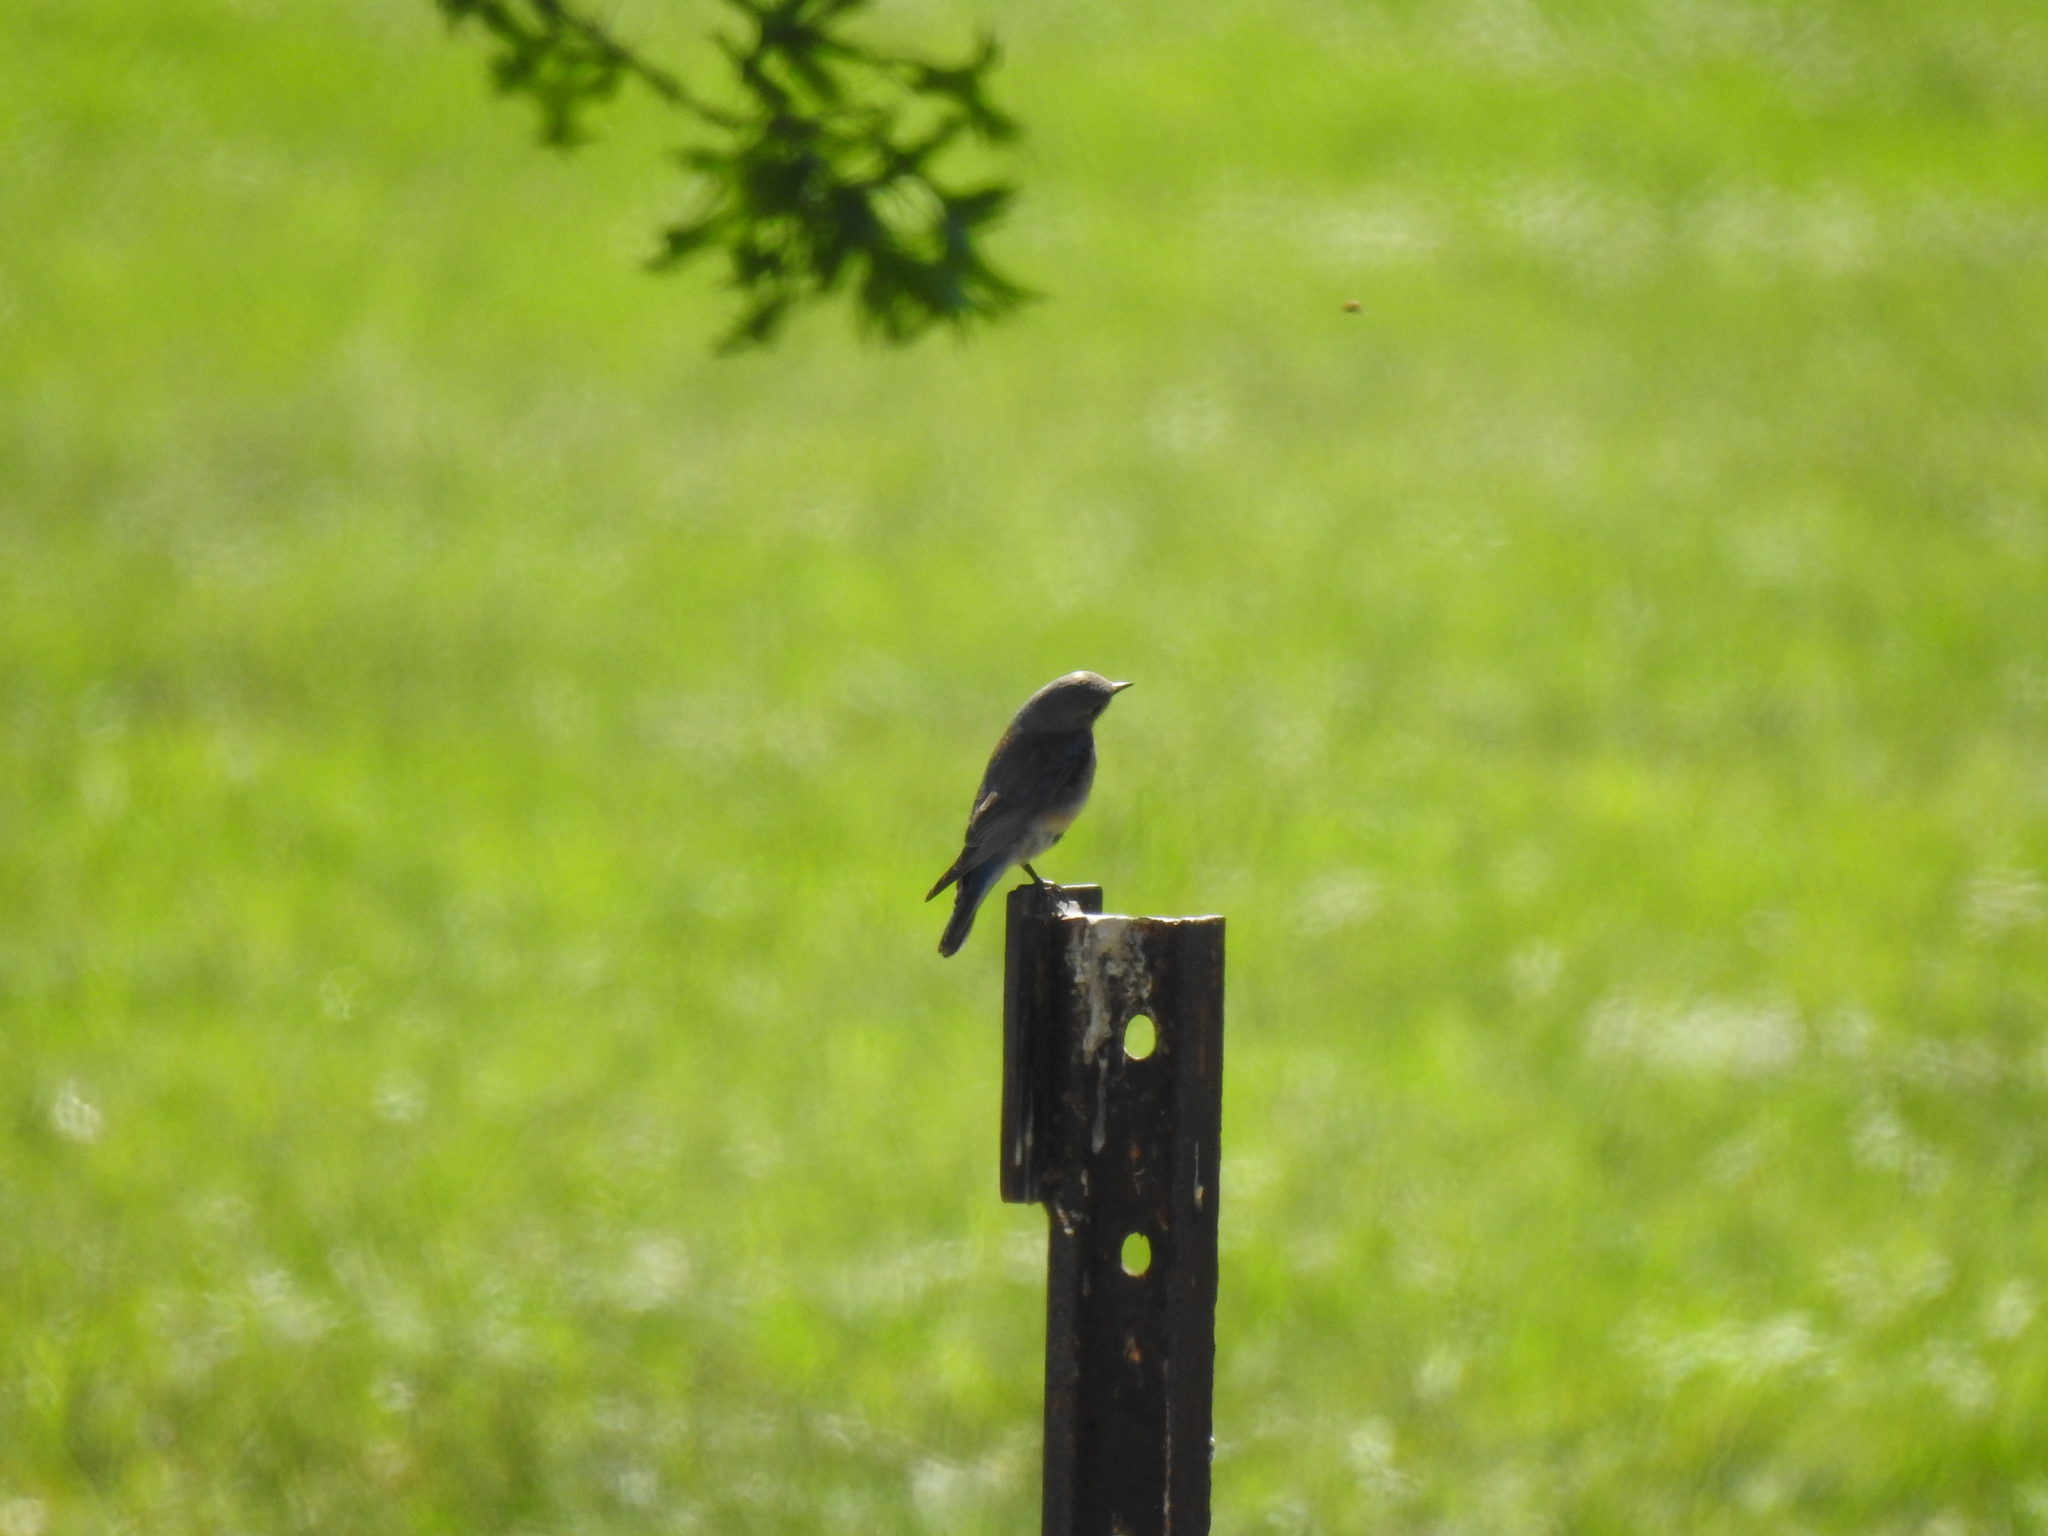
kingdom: Animalia
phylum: Chordata
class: Aves
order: Passeriformes
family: Turdidae
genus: Sialia
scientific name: Sialia mexicana
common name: Western bluebird
